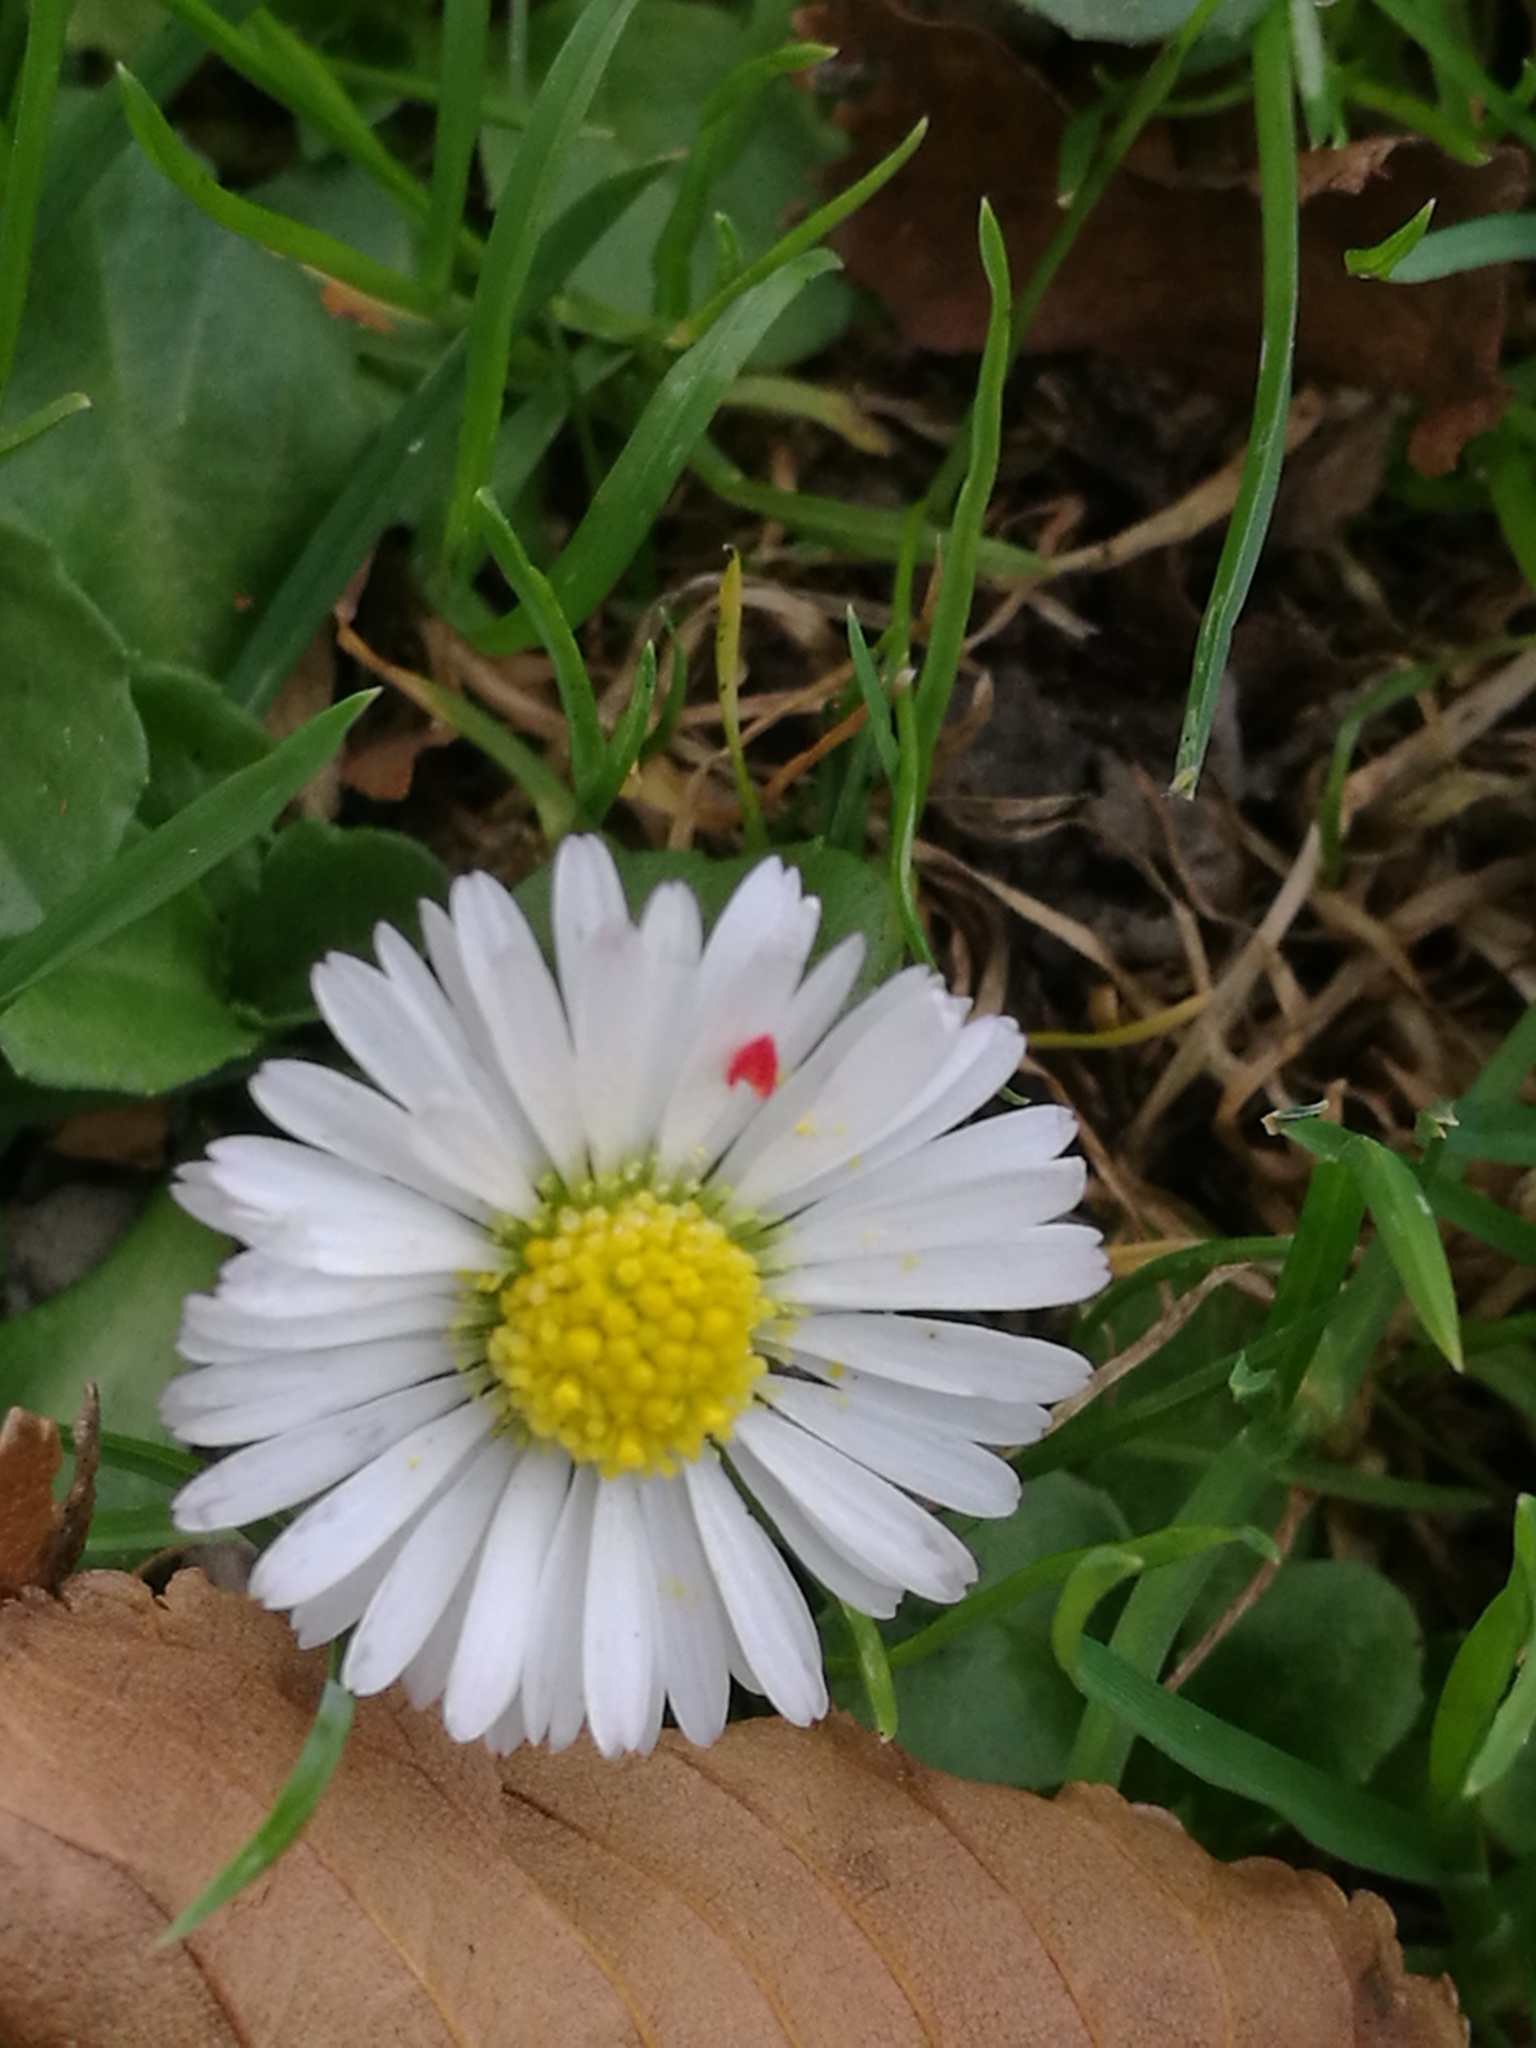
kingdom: Plantae
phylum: Tracheophyta
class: Magnoliopsida
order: Asterales
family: Asteraceae
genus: Bellis
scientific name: Bellis perennis
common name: Lawndaisy
